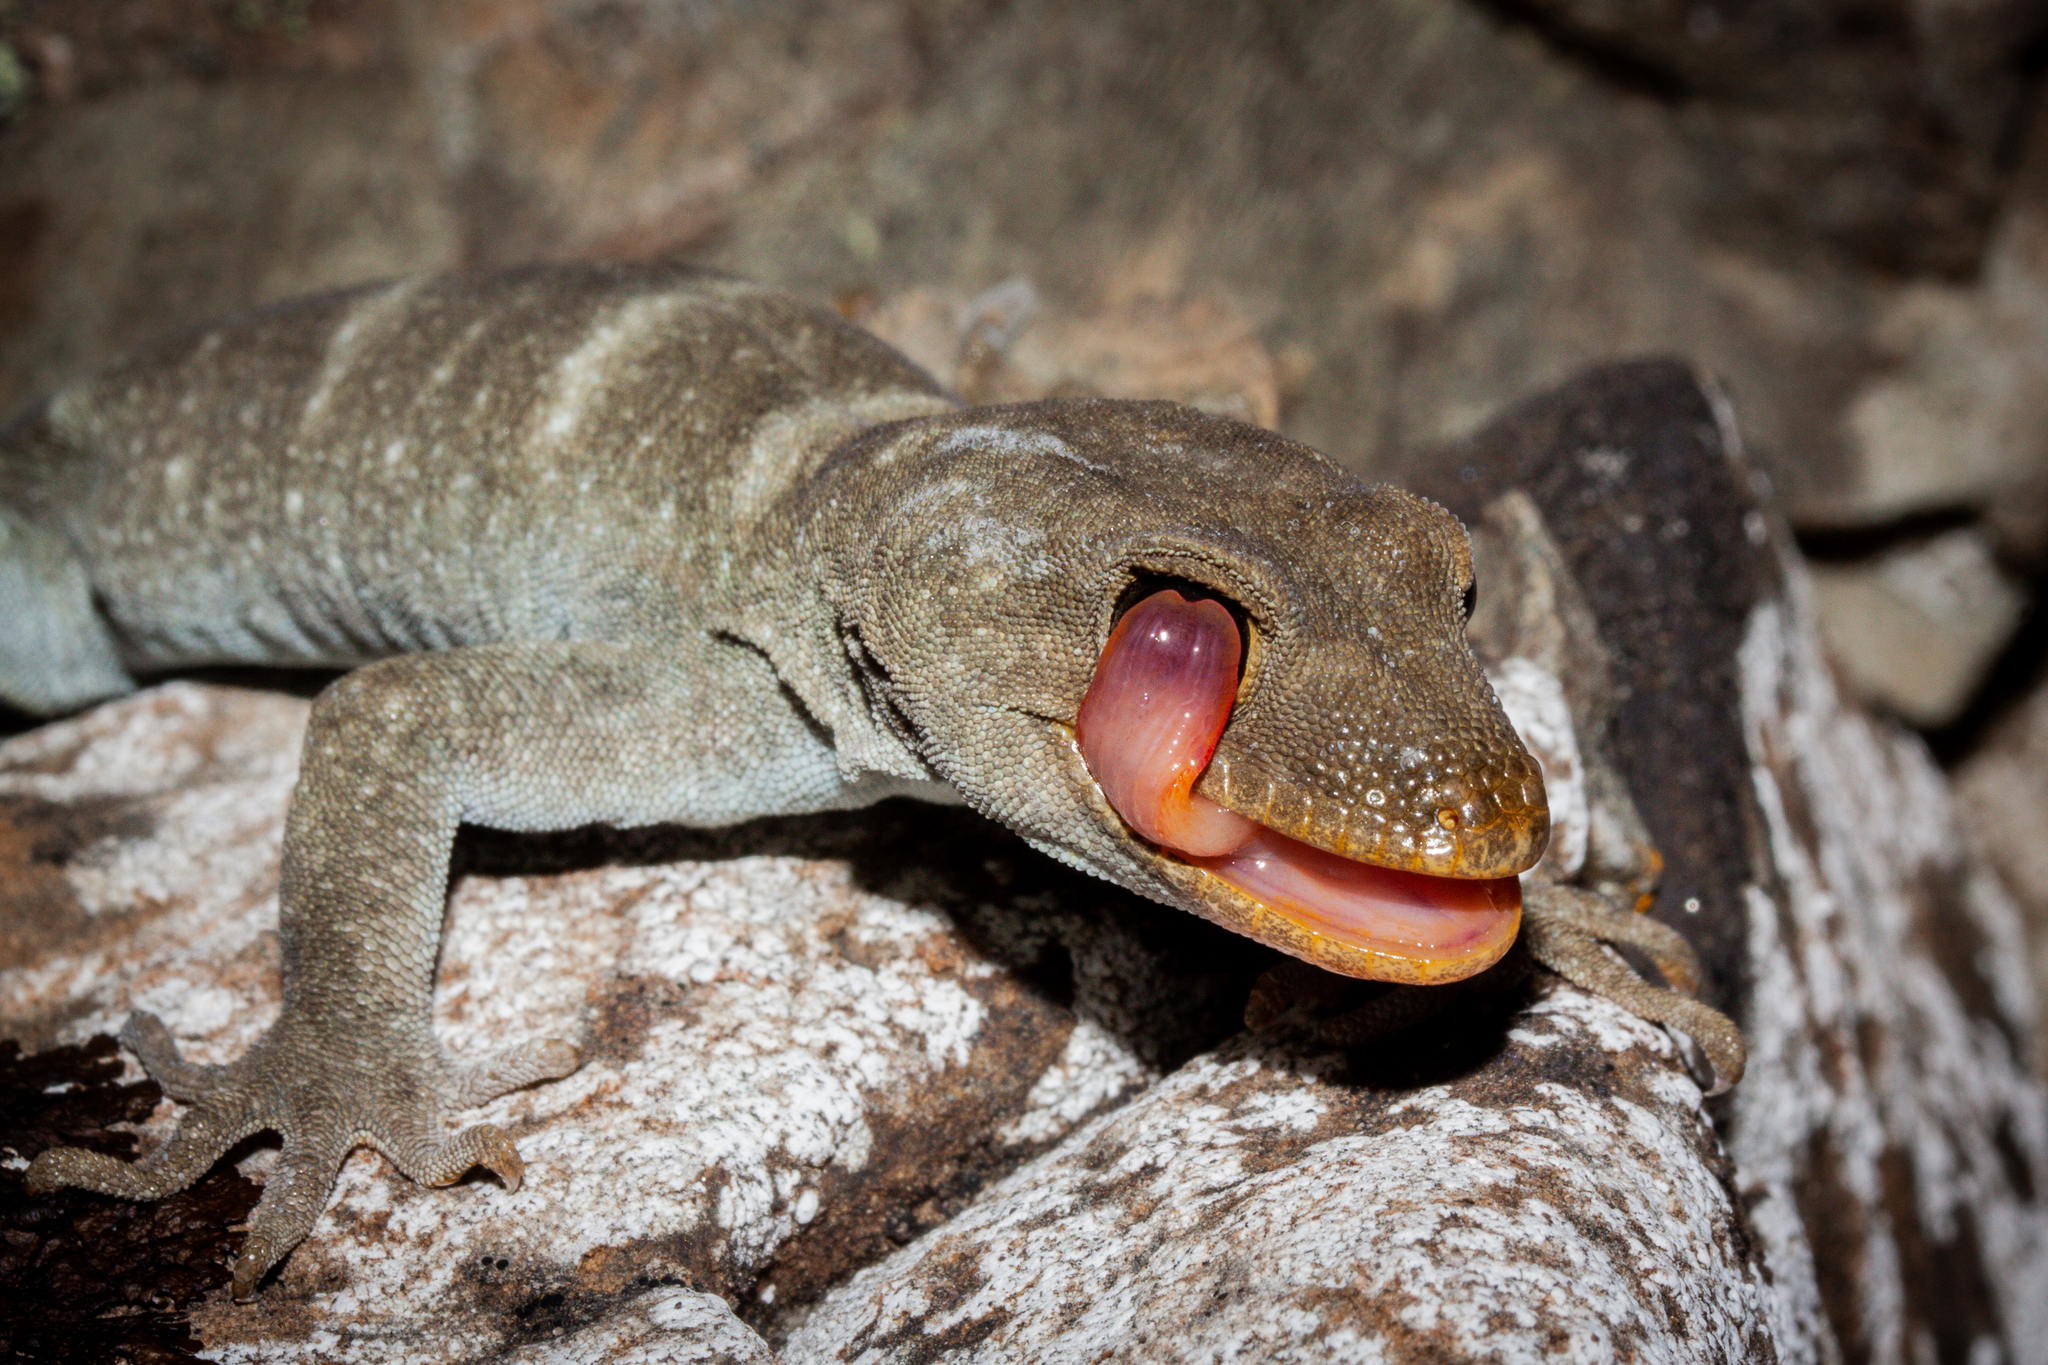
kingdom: Animalia
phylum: Chordata
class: Squamata
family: Diplodactylidae
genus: Mokopirirakau
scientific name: Mokopirirakau kahutarae
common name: Black-eyed gecko
